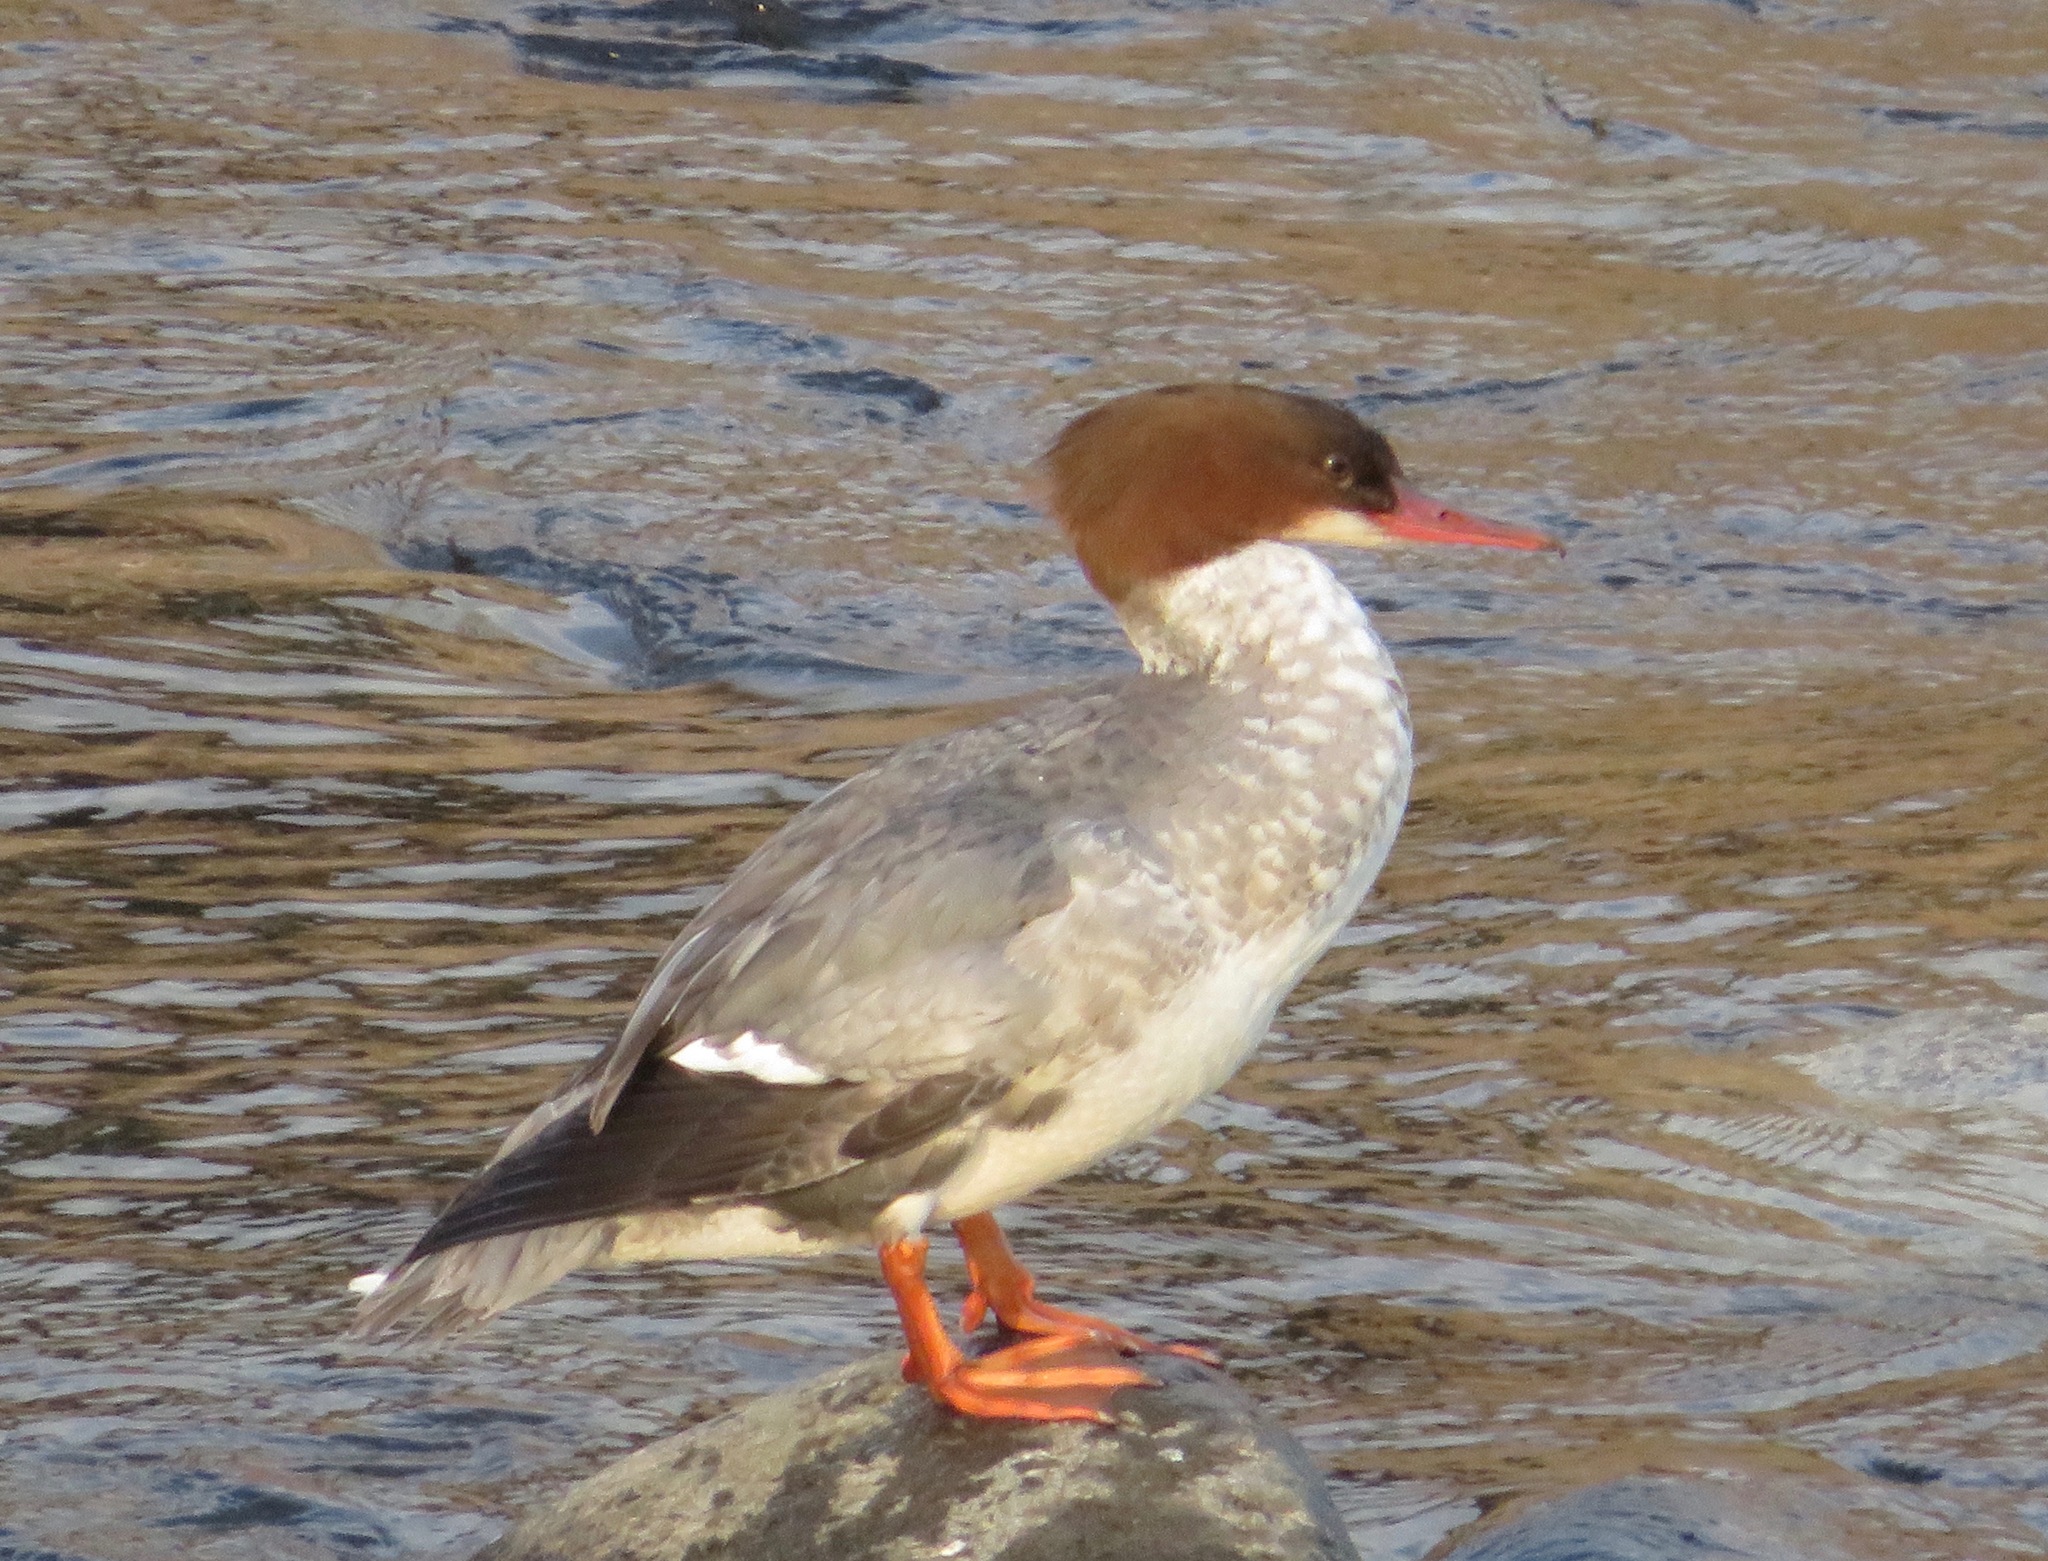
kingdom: Animalia
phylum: Chordata
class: Aves
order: Anseriformes
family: Anatidae
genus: Mergus
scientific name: Mergus merganser
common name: Common merganser
